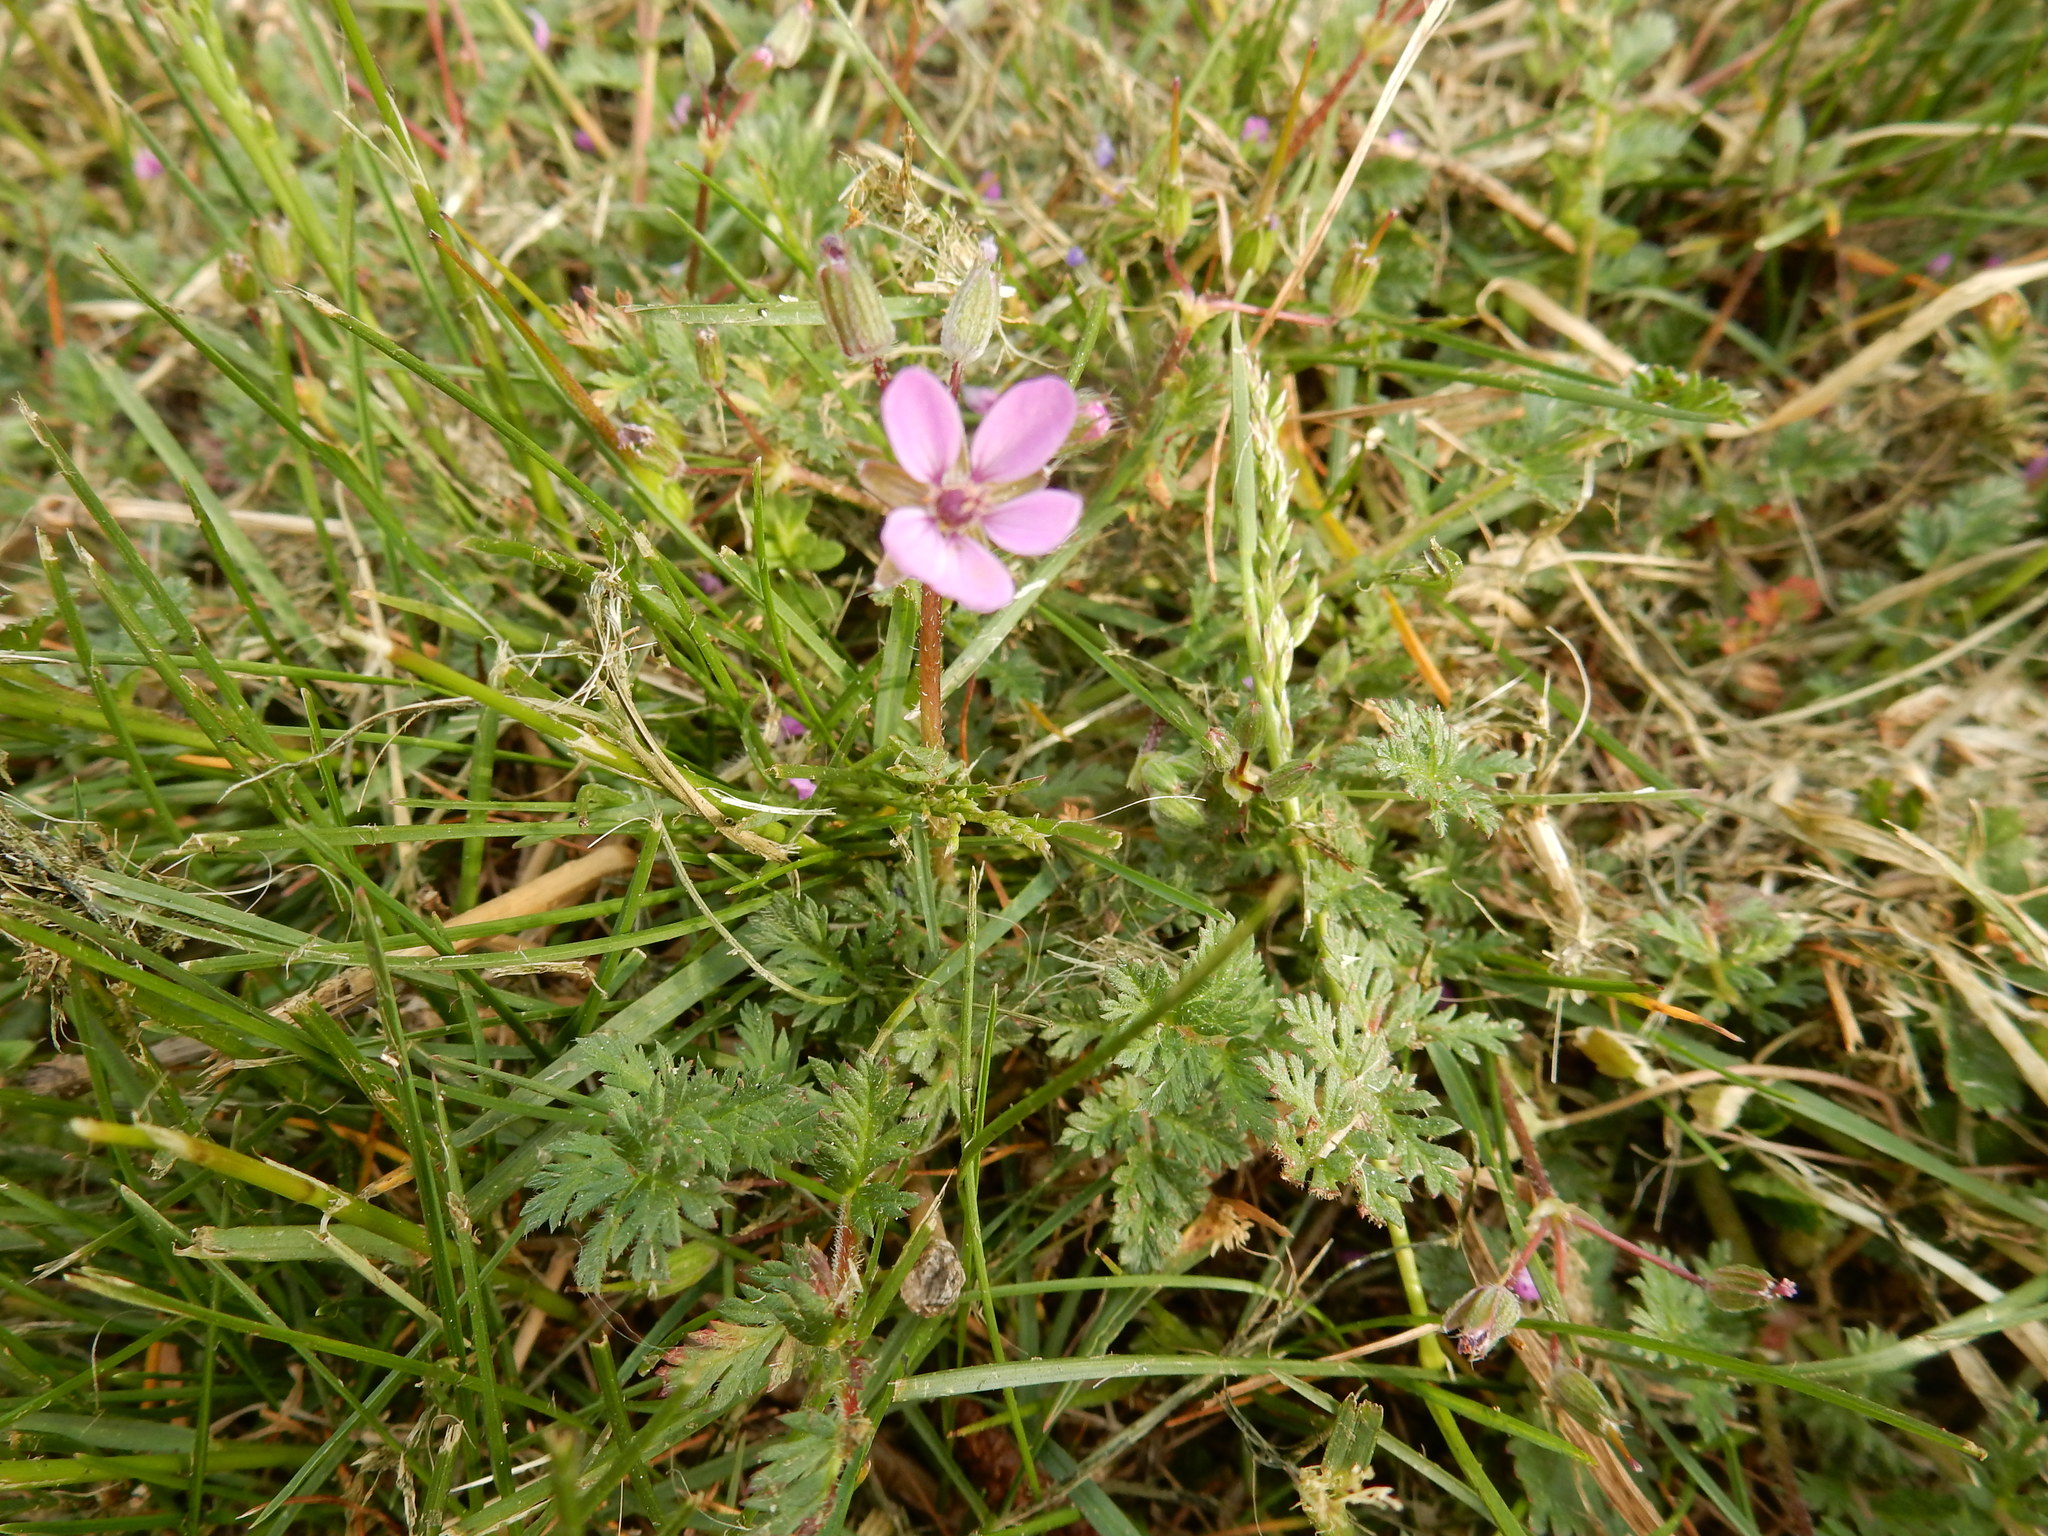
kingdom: Plantae
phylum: Tracheophyta
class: Magnoliopsida
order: Geraniales
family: Geraniaceae
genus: Erodium
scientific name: Erodium cicutarium
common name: Common stork's-bill
